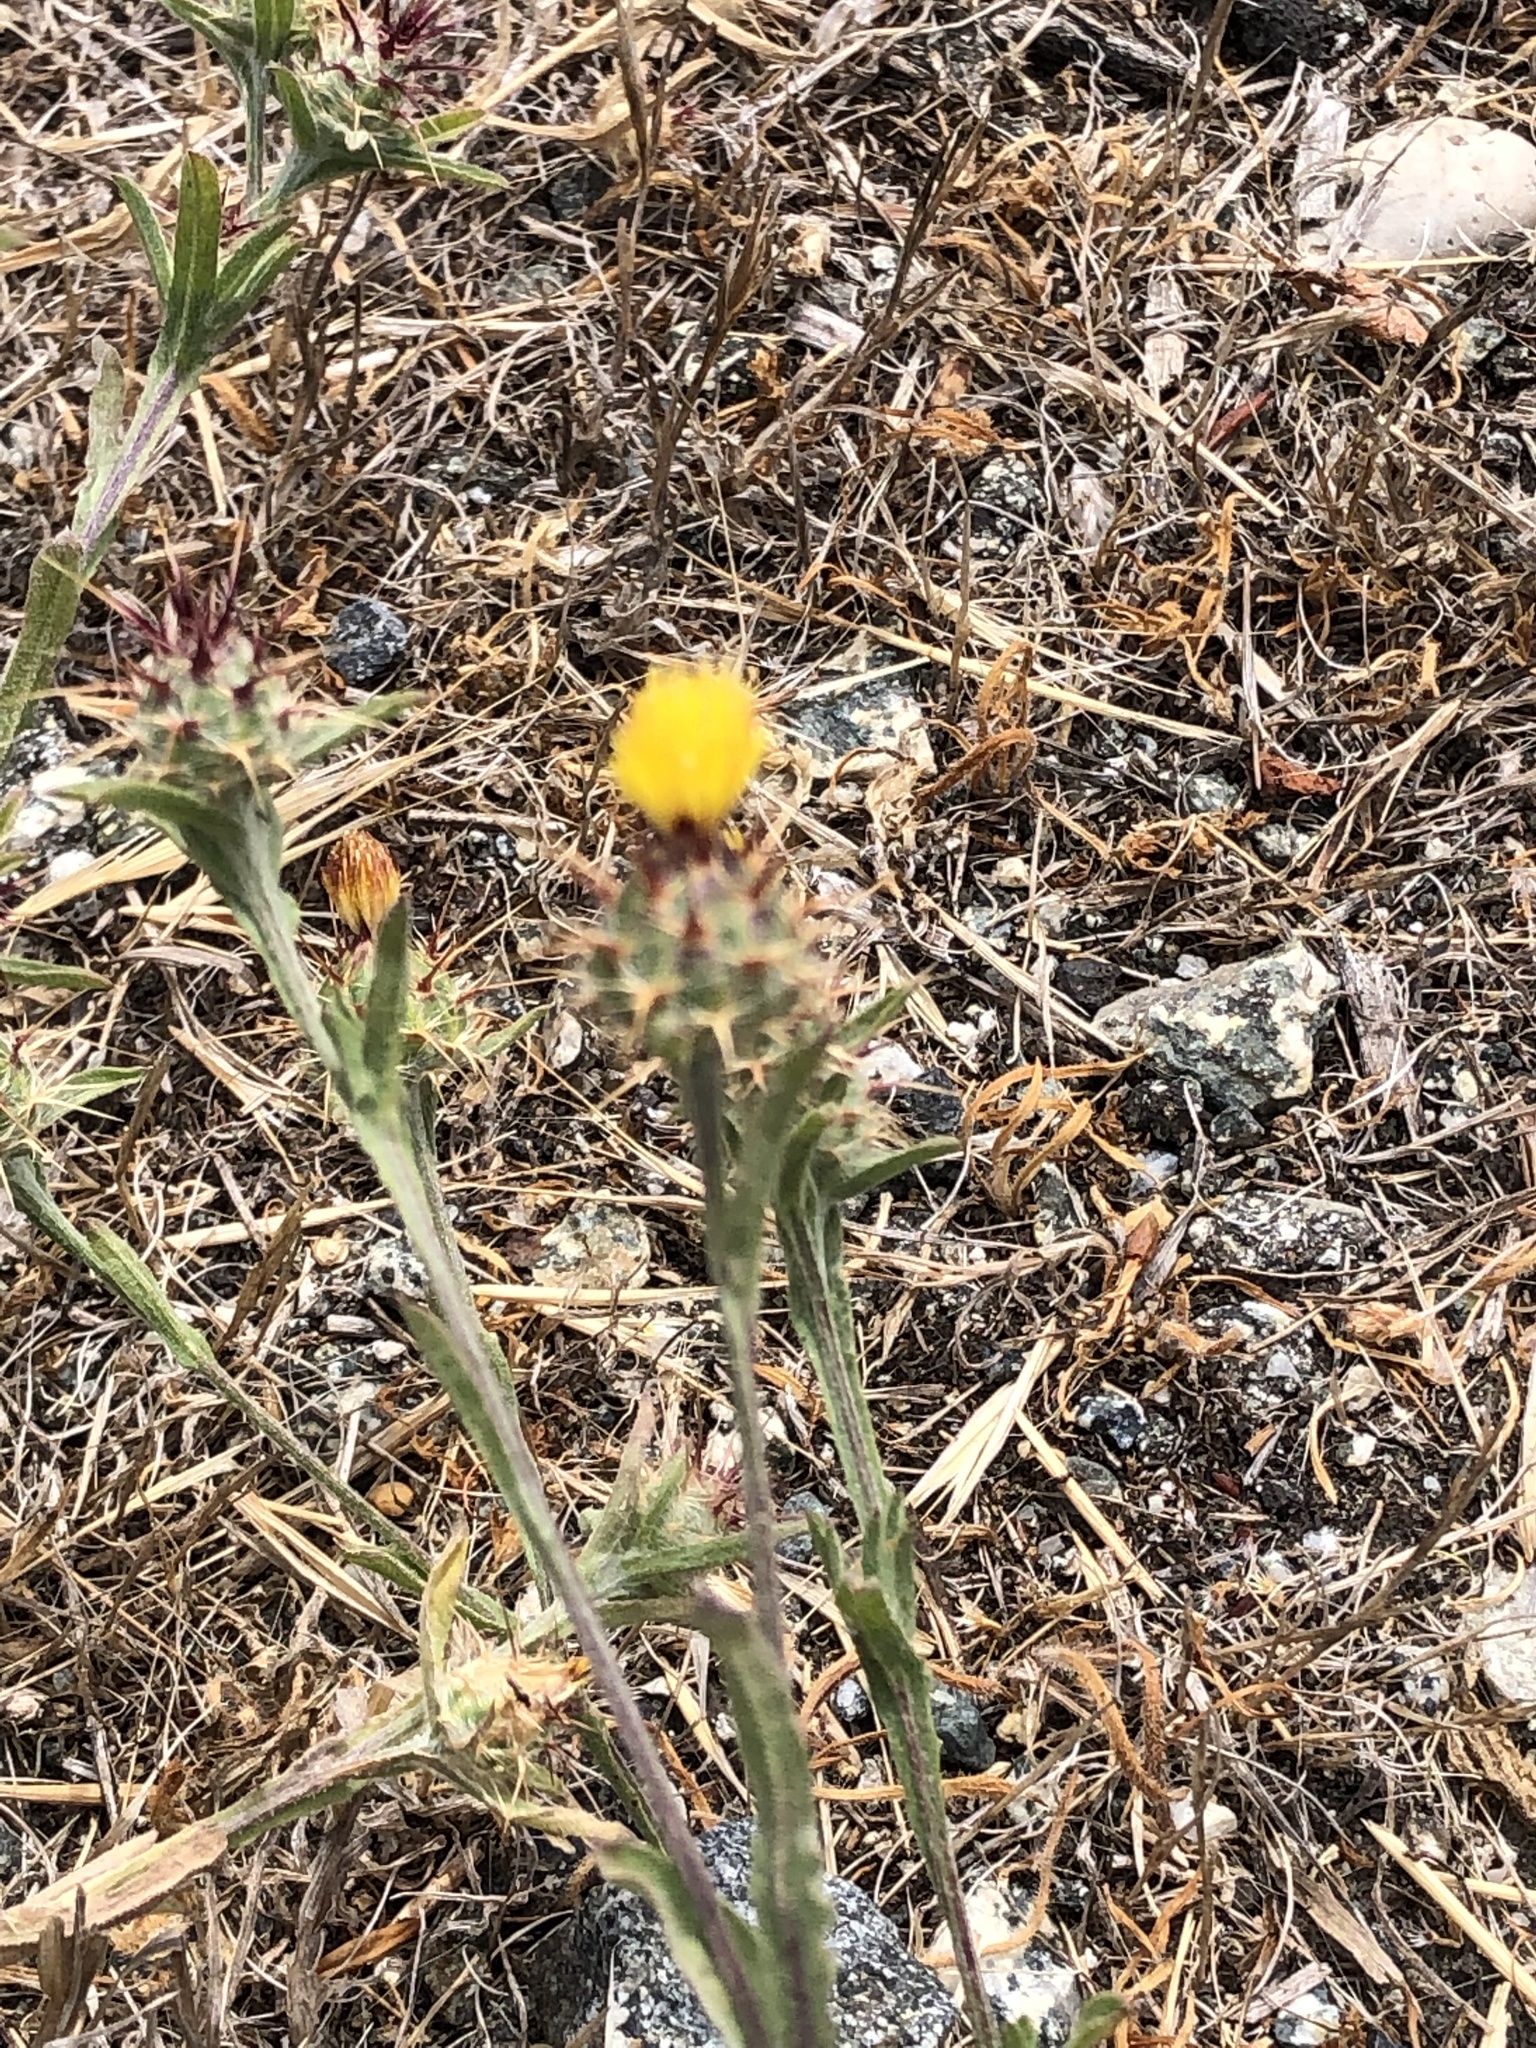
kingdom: Plantae
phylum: Tracheophyta
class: Magnoliopsida
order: Asterales
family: Asteraceae
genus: Centaurea
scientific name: Centaurea melitensis
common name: Maltese star-thistle
